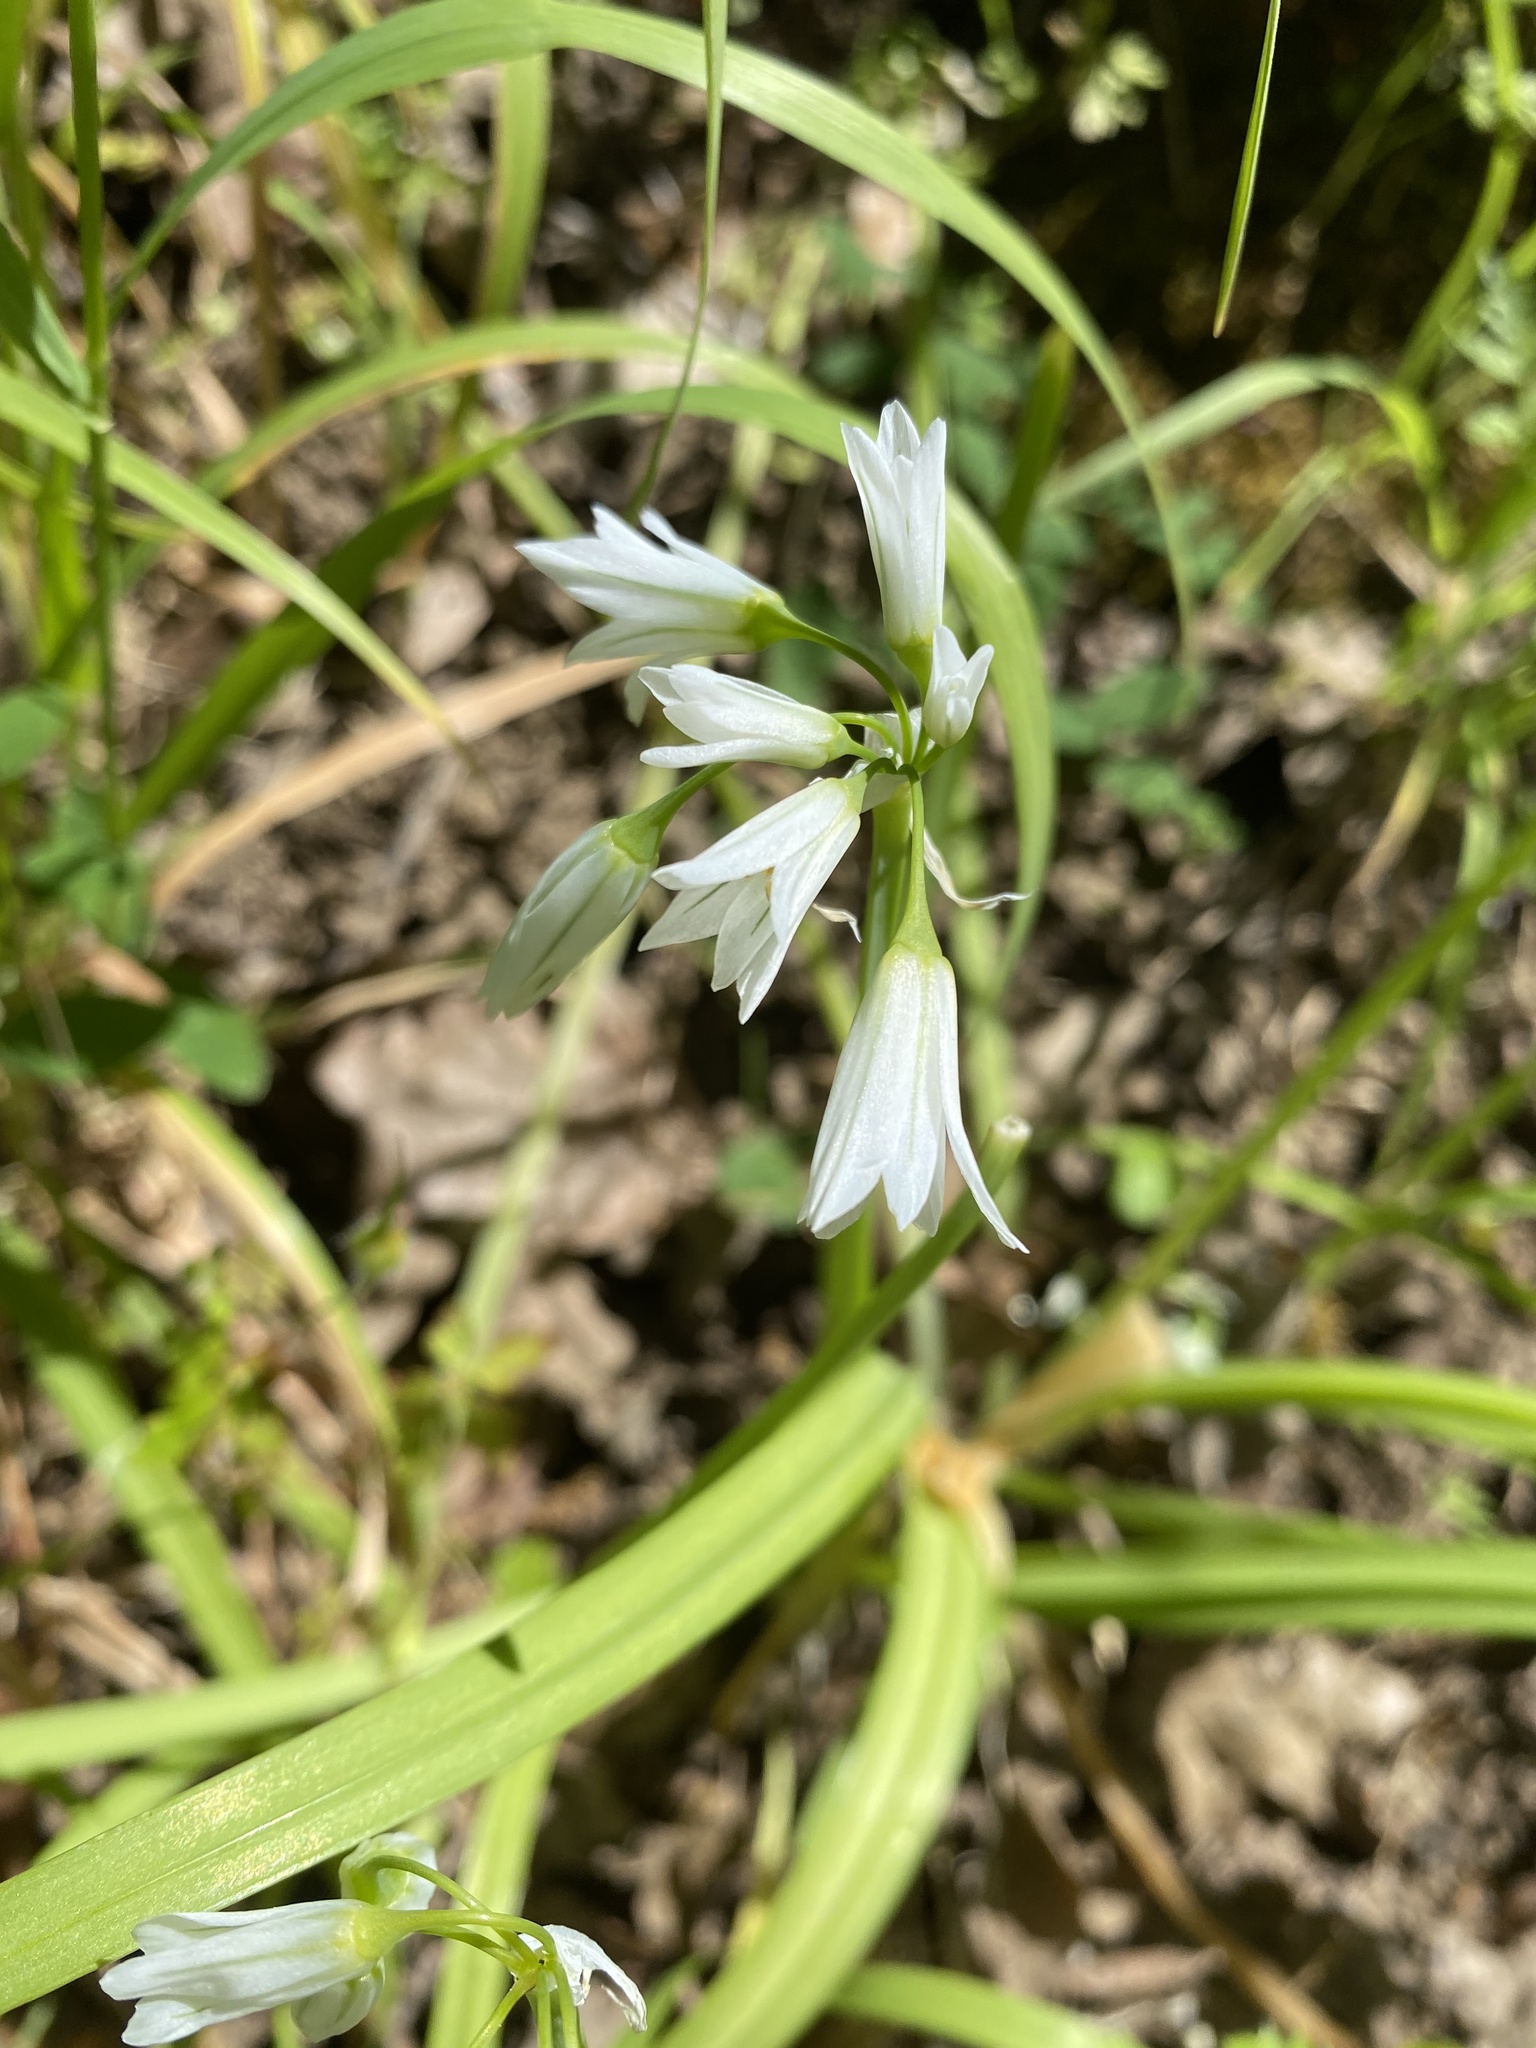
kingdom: Plantae
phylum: Tracheophyta
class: Liliopsida
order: Asparagales
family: Amaryllidaceae
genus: Allium
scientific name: Allium triquetrum
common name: Three-cornered garlic
